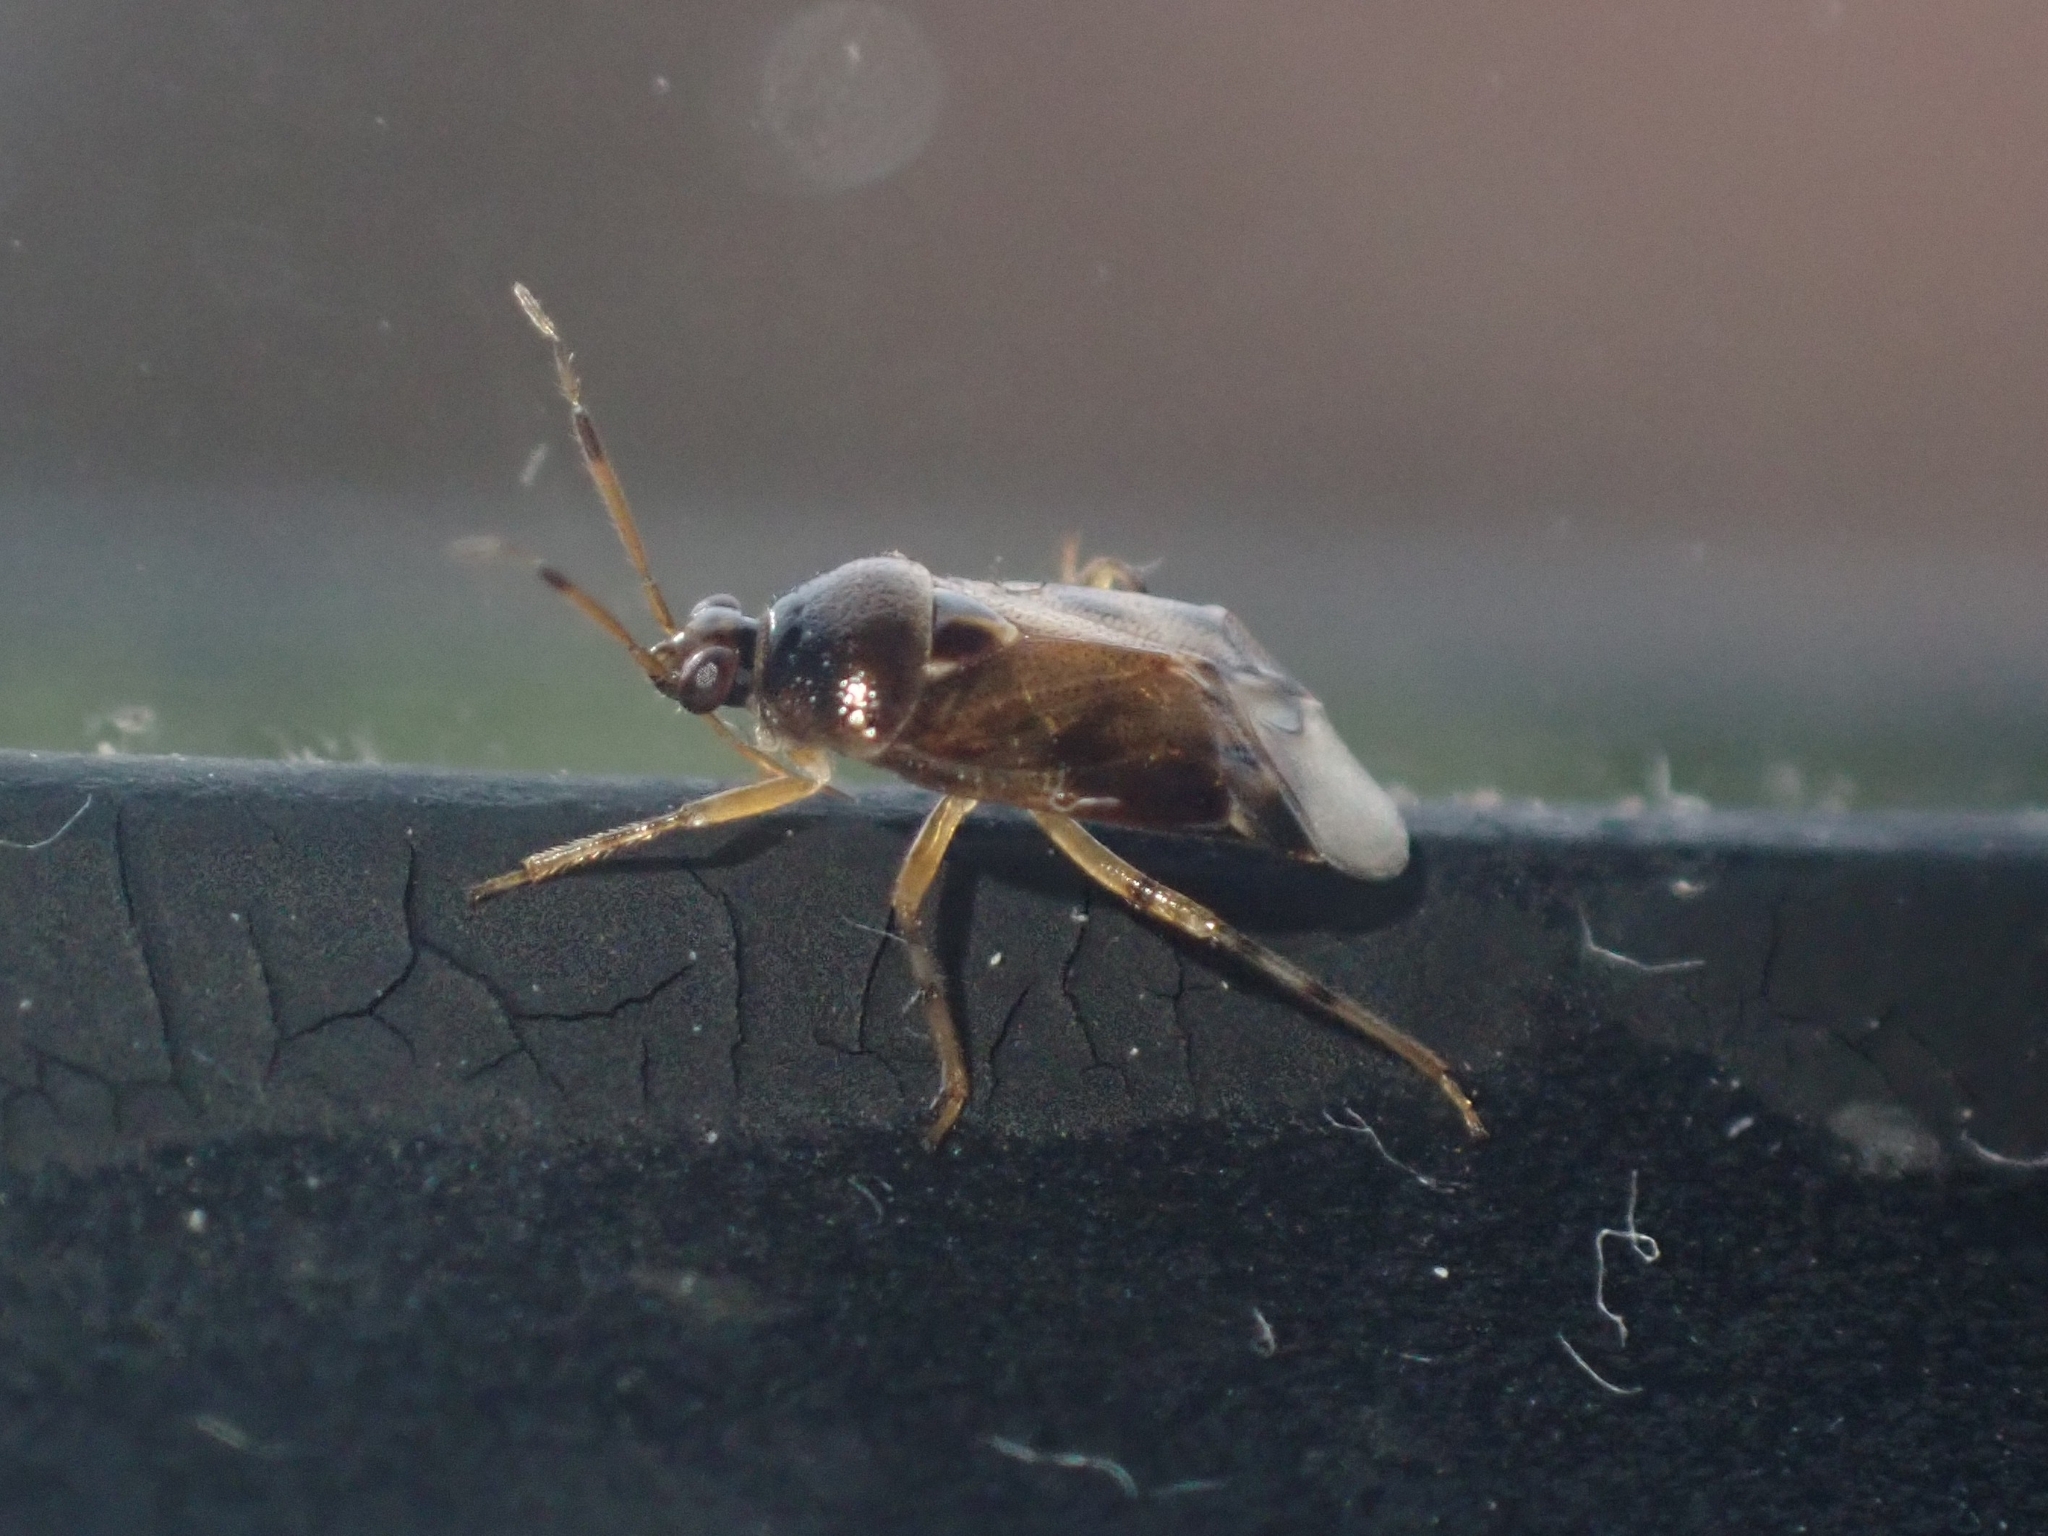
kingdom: Animalia
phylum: Arthropoda
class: Insecta
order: Hemiptera
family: Miridae
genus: Deraeocoris
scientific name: Deraeocoris lutescens
